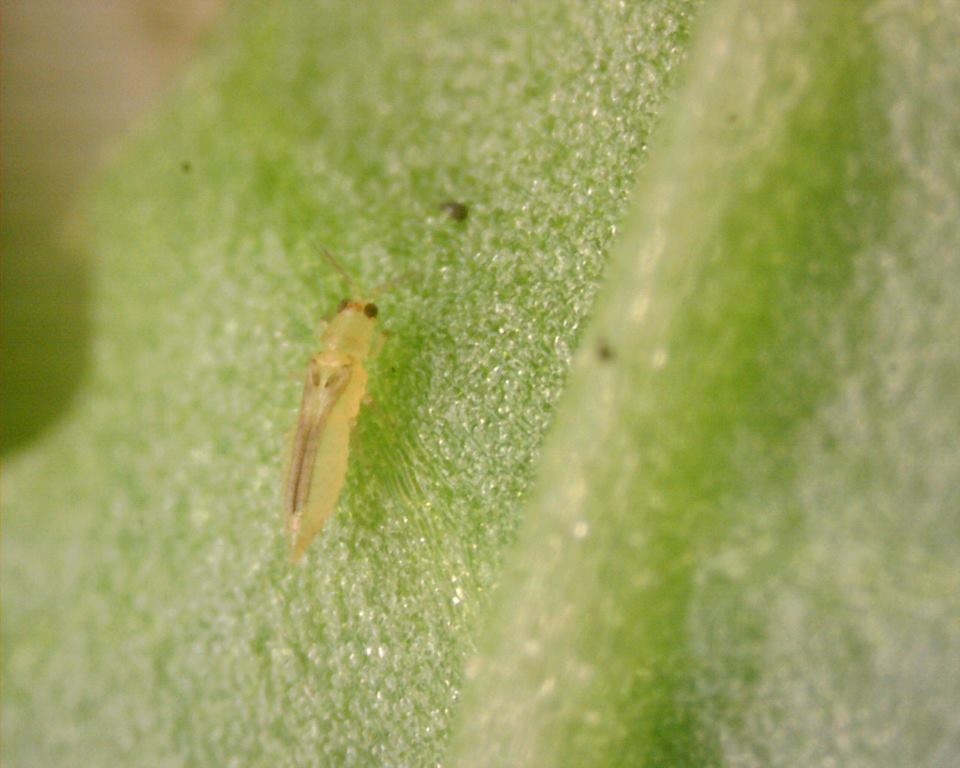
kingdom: Animalia
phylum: Arthropoda
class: Insecta
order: Thysanoptera
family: Thripidae
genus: Scirtothrips
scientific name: Scirtothrips dorsalis
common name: Thrips
